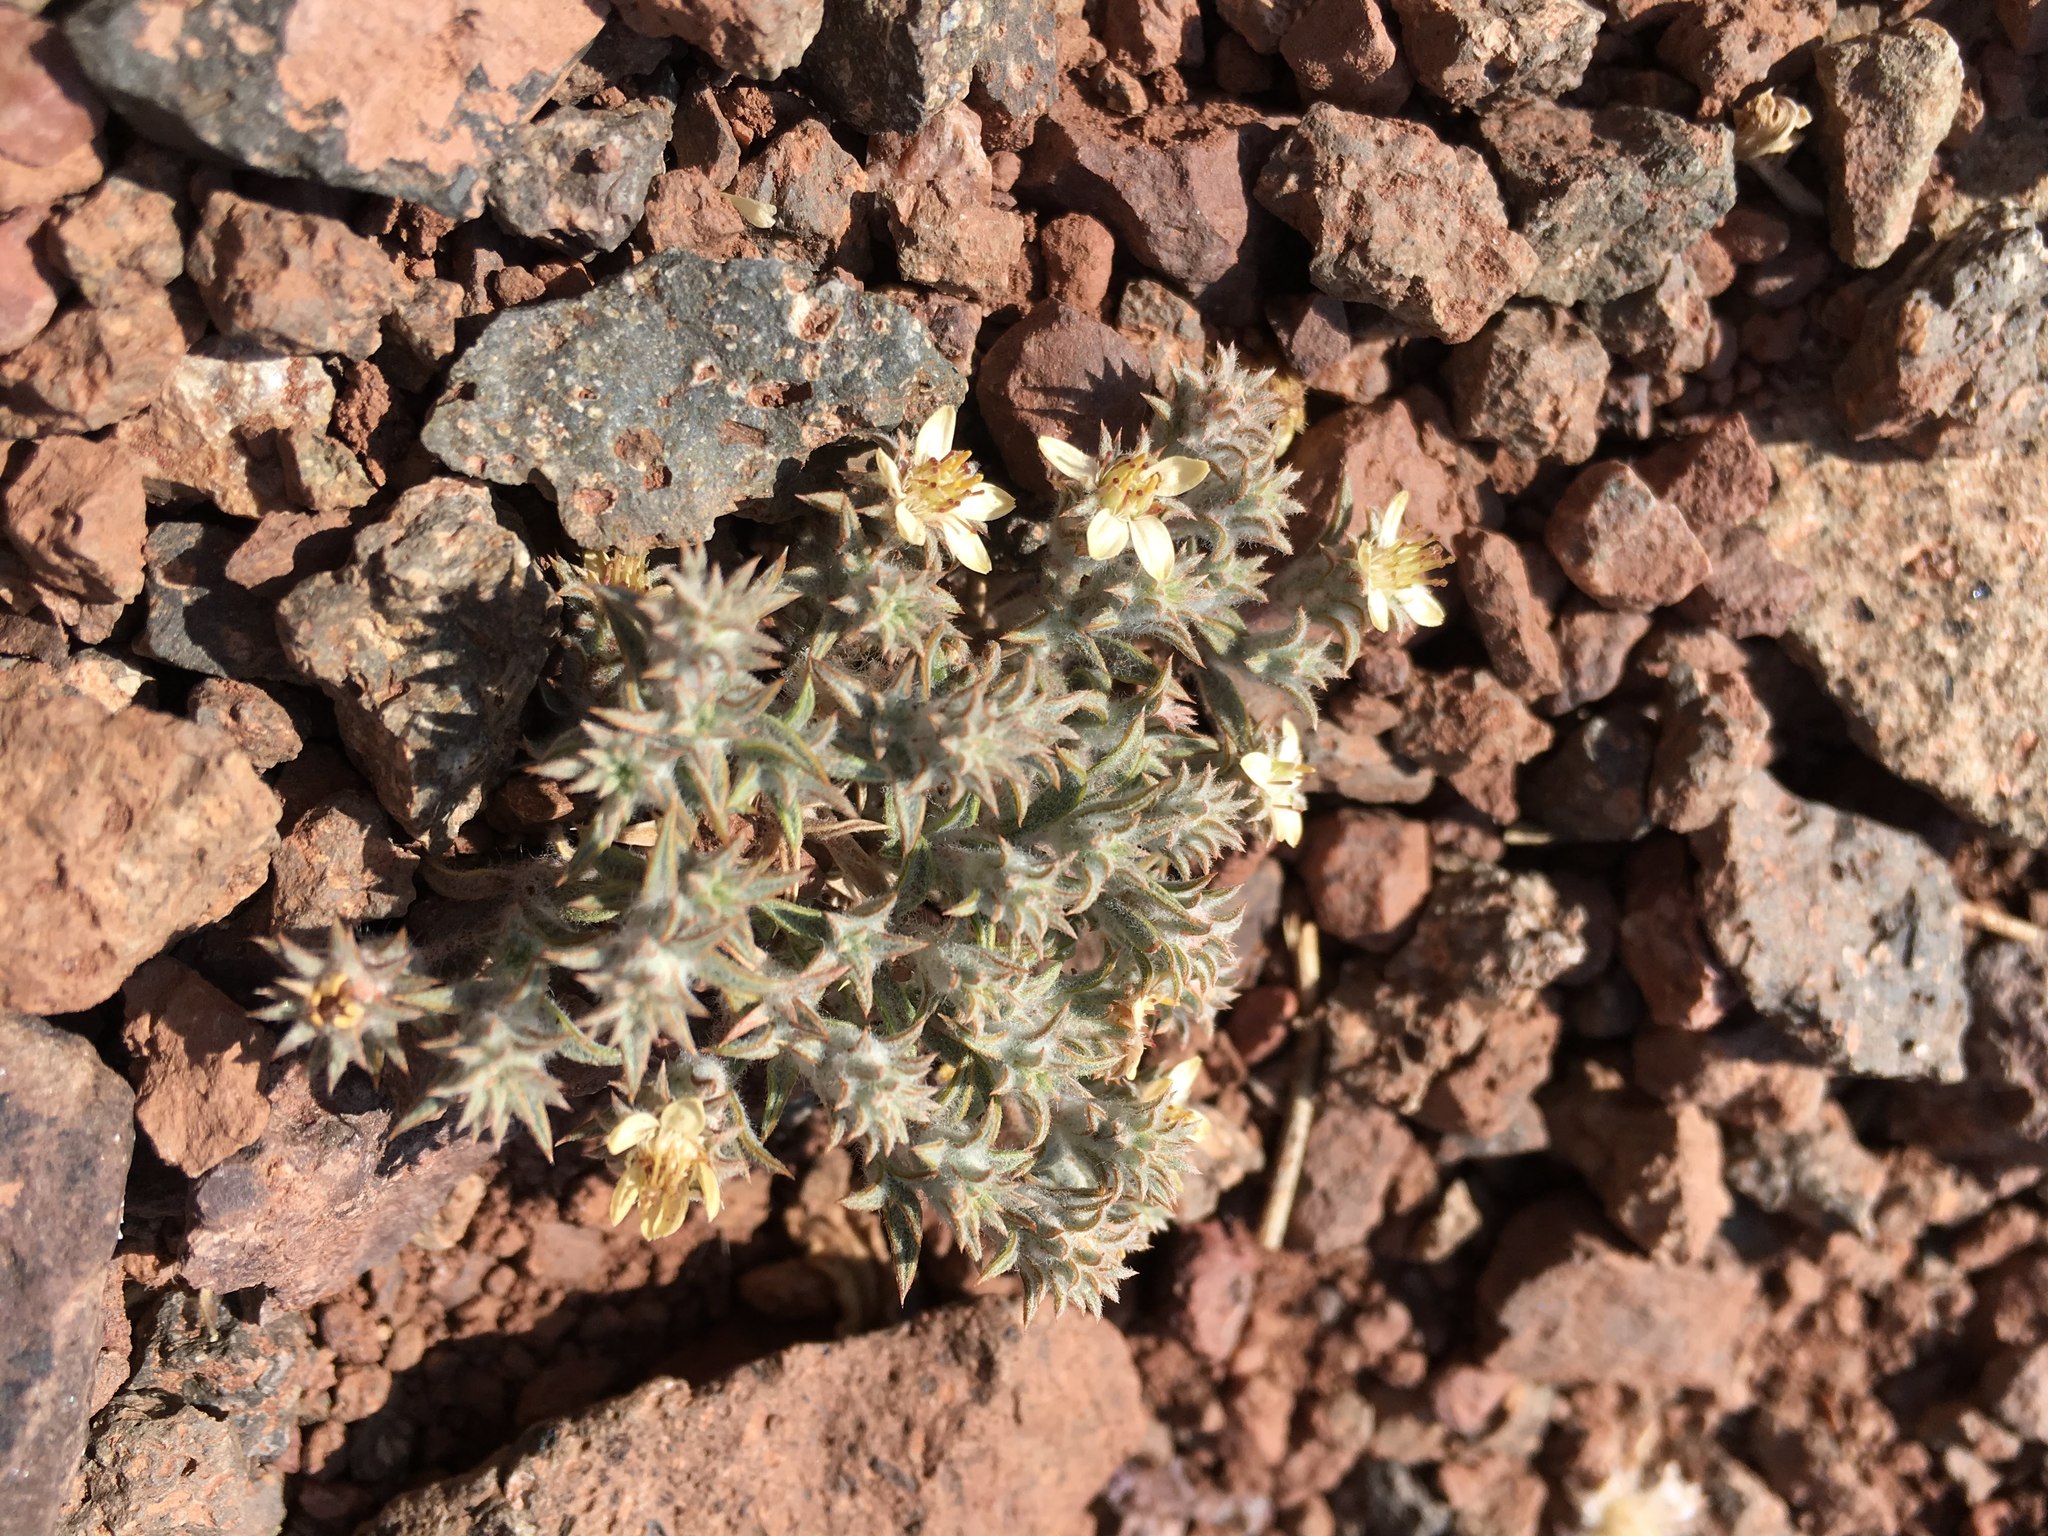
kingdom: Plantae
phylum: Tracheophyta
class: Magnoliopsida
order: Asterales
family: Asteraceae
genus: Oriastrum
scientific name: Oriastrum acerosum
